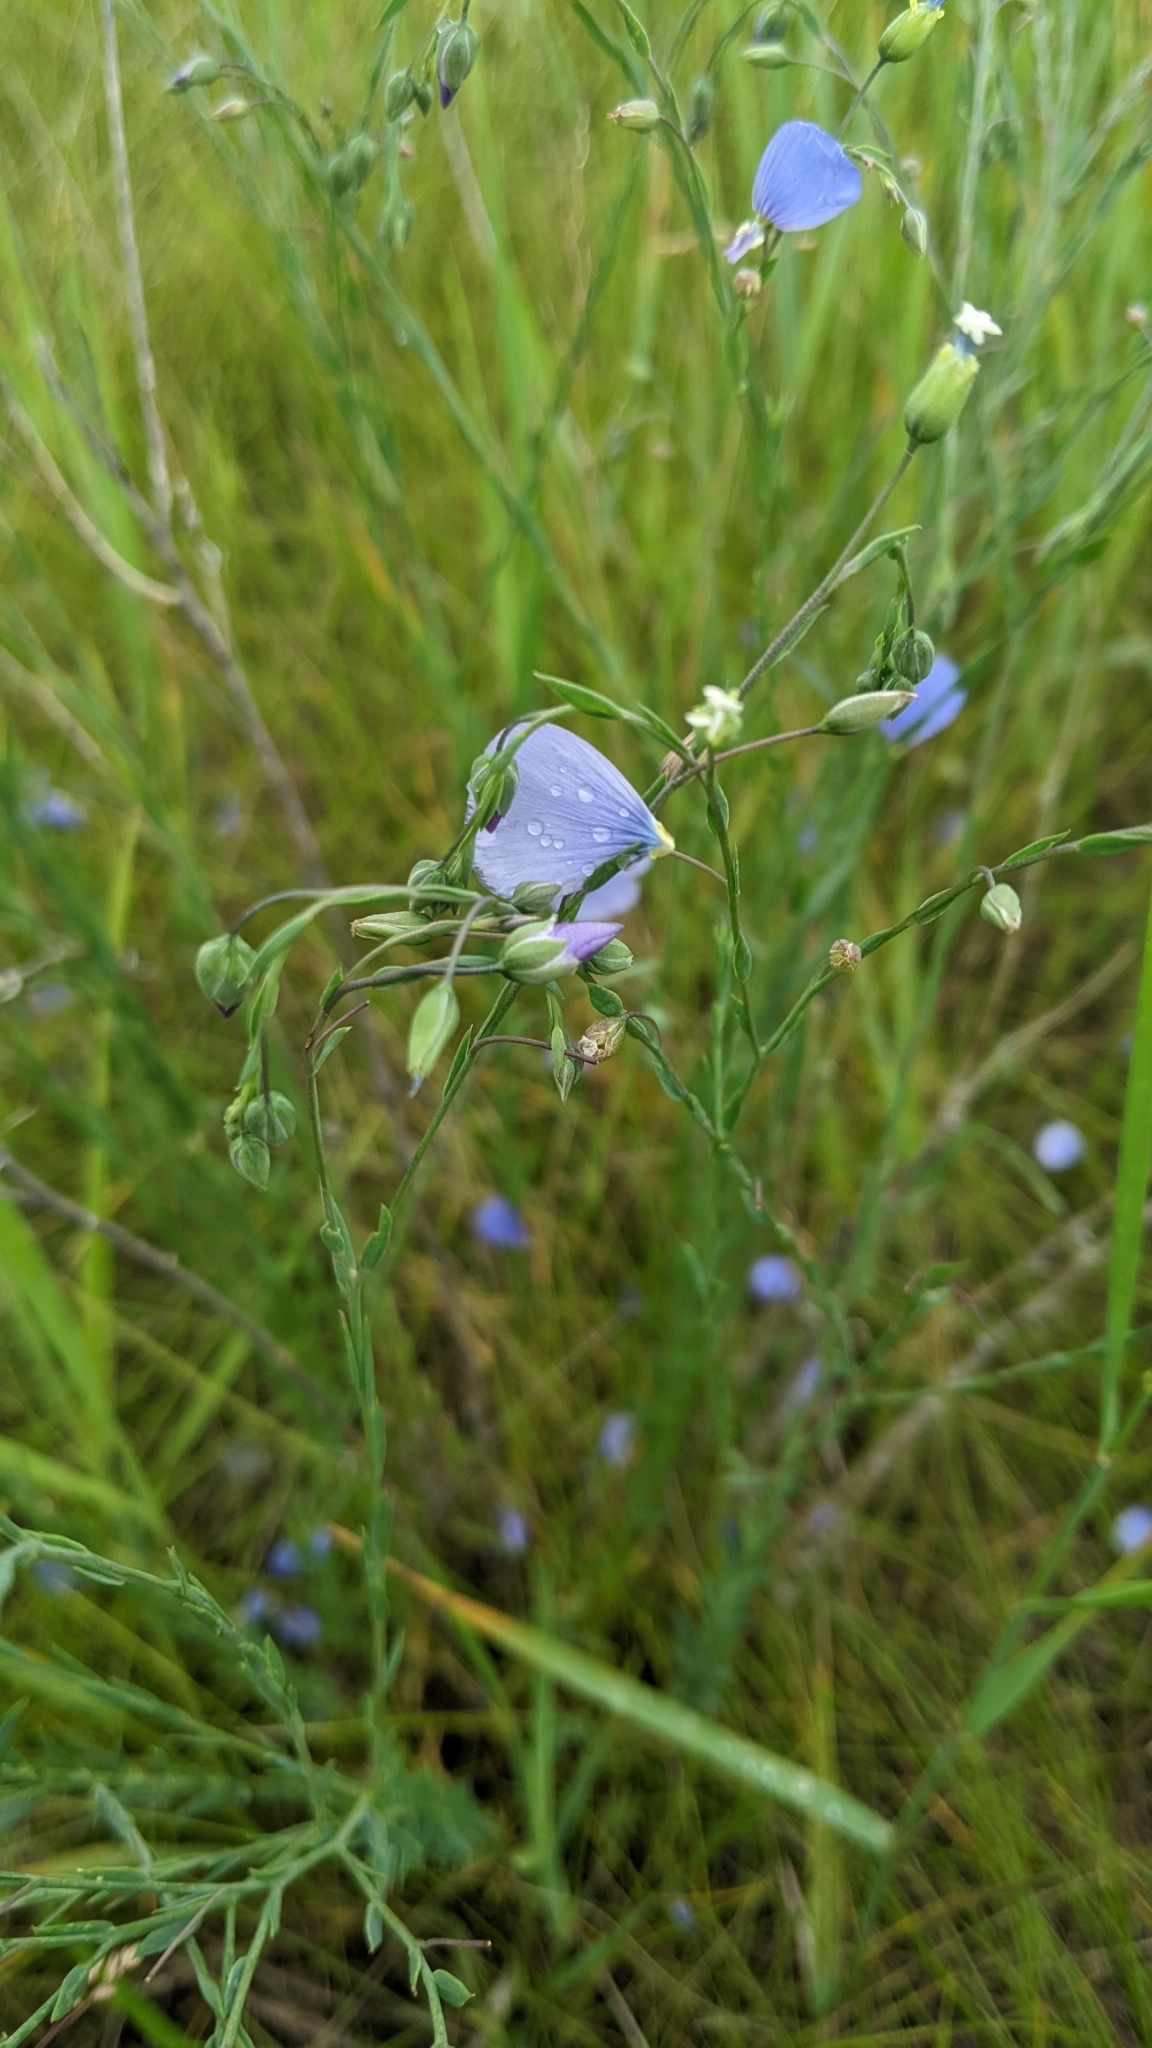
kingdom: Plantae
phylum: Tracheophyta
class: Magnoliopsida
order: Malpighiales
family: Linaceae
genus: Linum
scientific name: Linum lewisii
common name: Prairie flax
